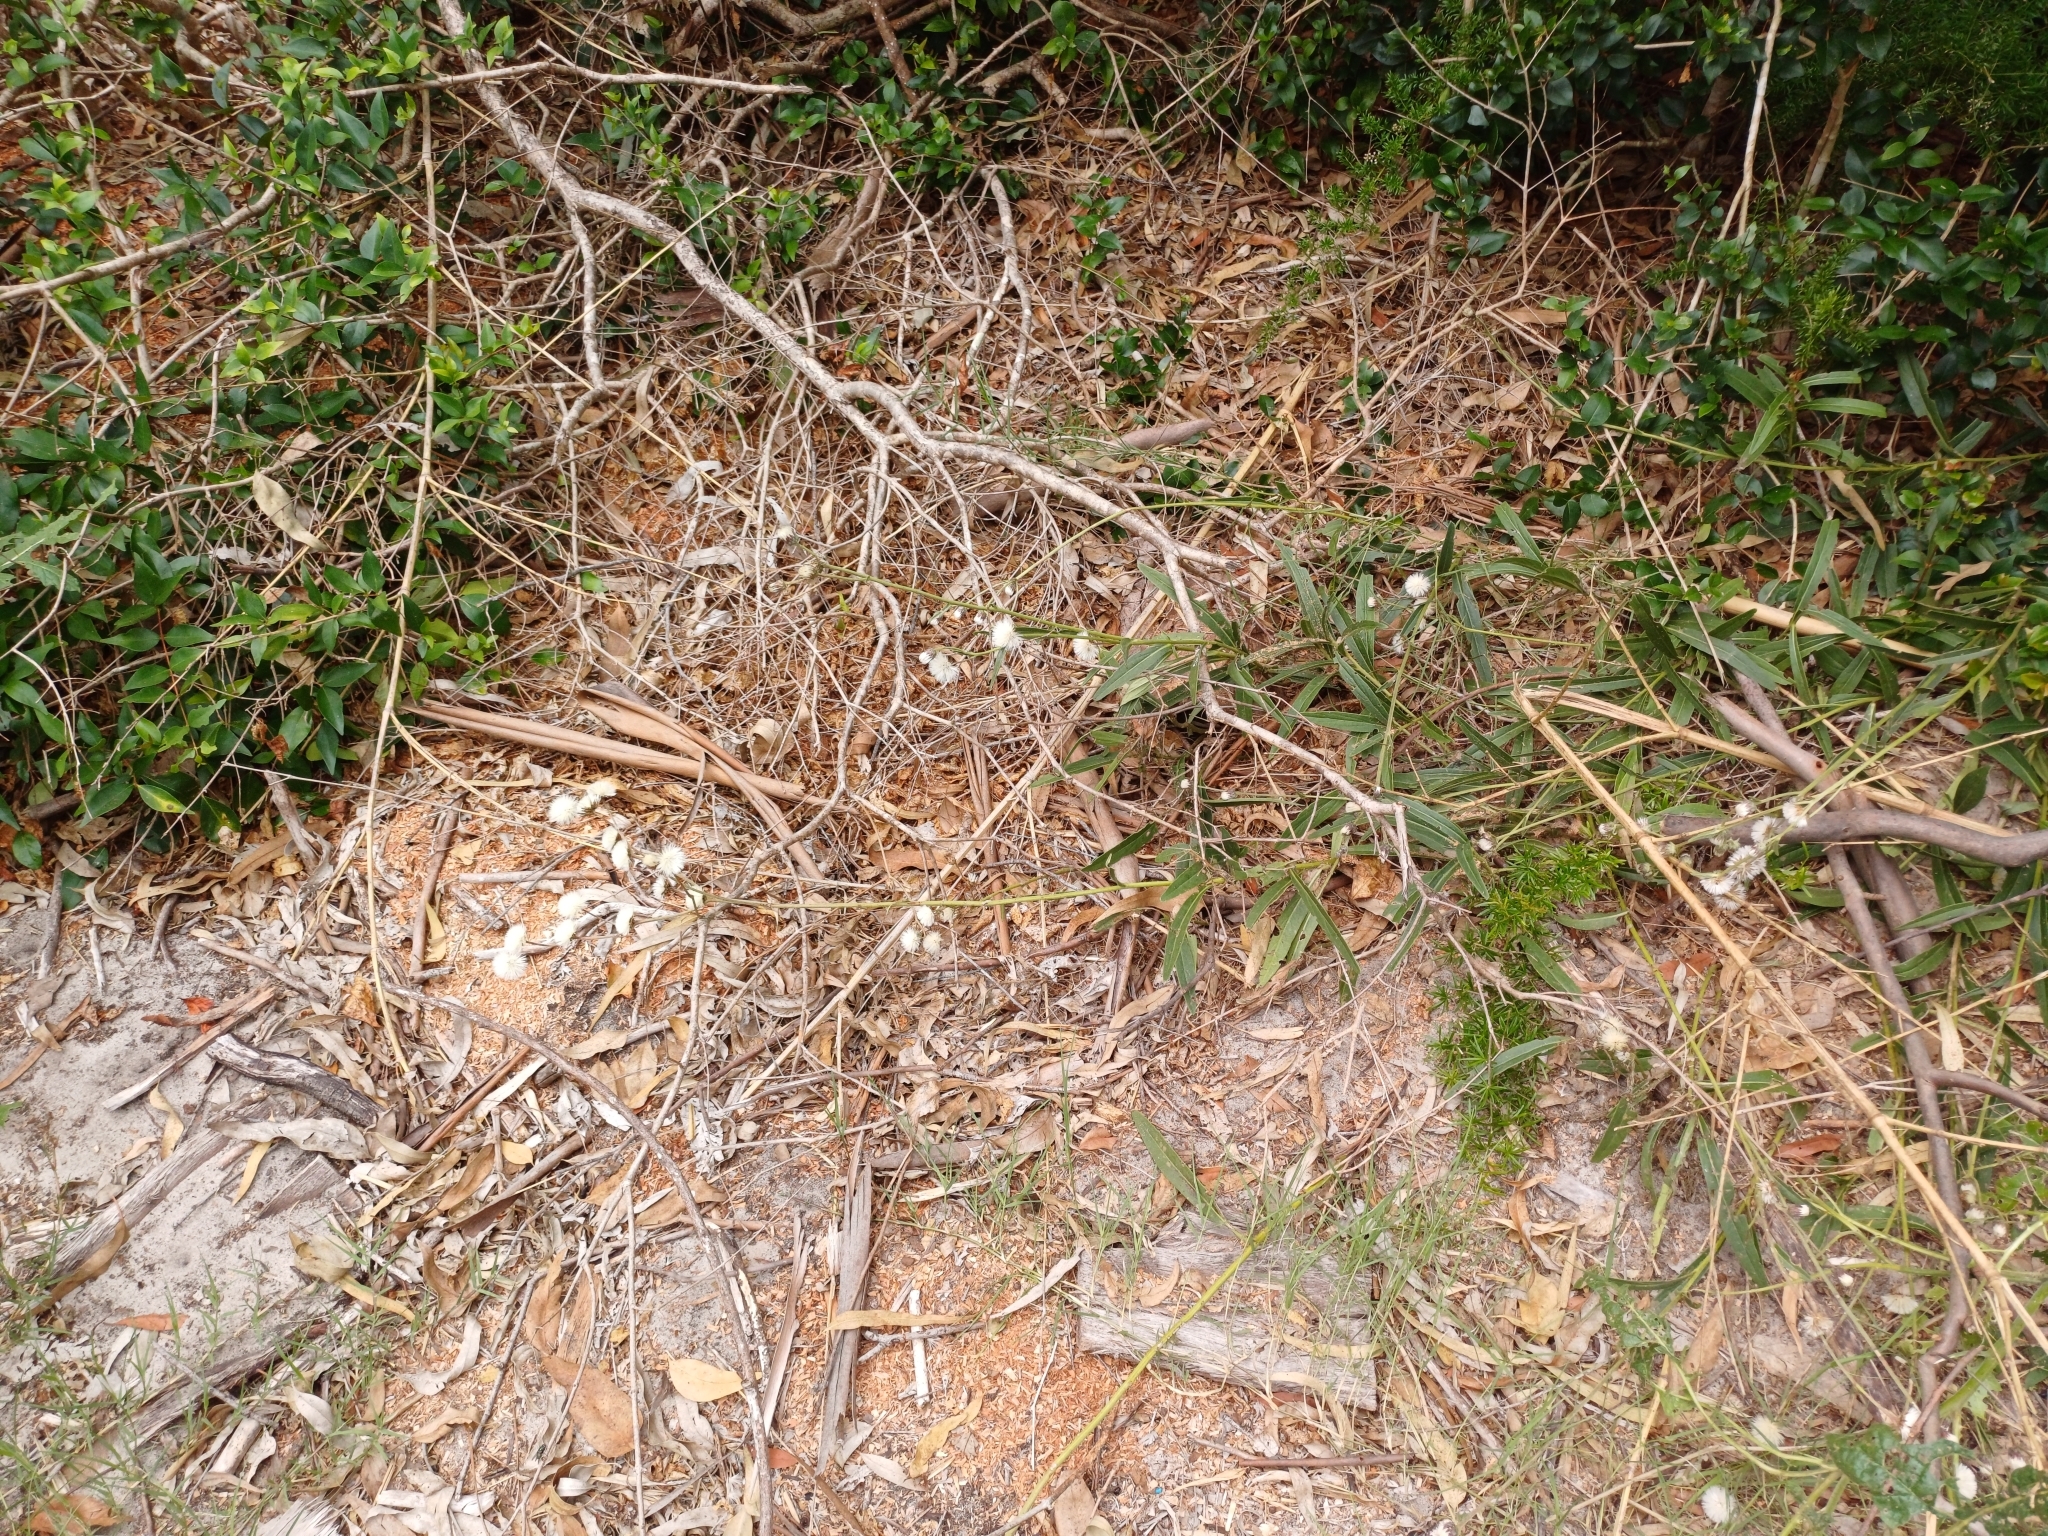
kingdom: Plantae
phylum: Tracheophyta
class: Magnoliopsida
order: Asterales
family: Asteraceae
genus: Chrysolaena
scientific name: Chrysolaena flexuosa
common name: Zig-zag vernonia
